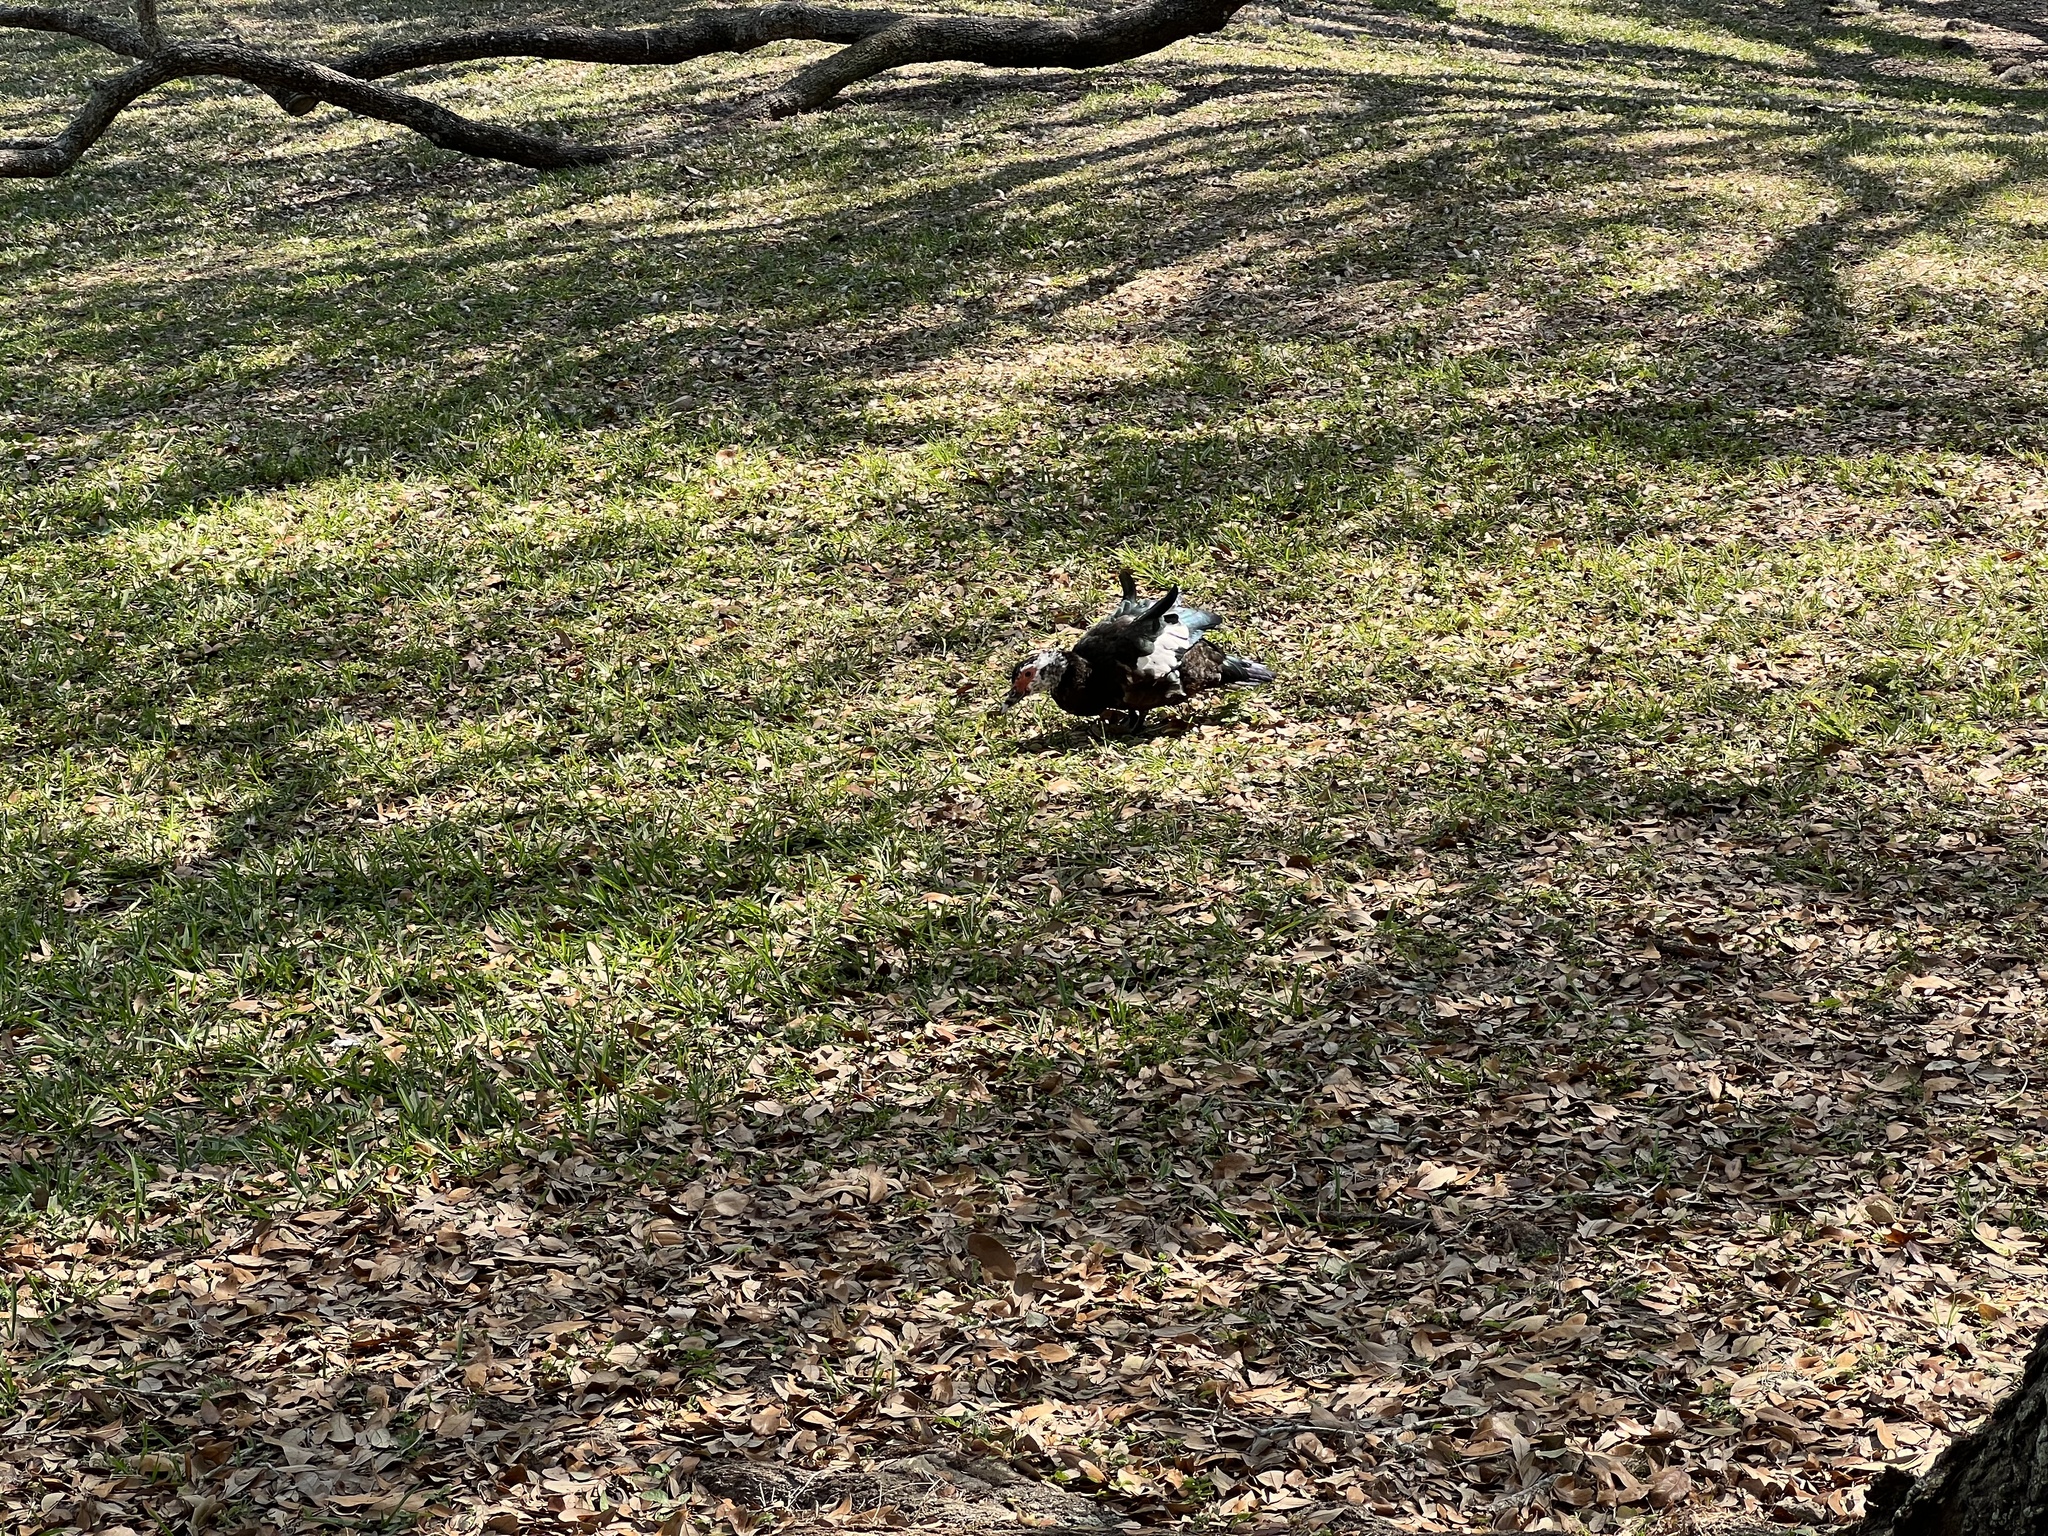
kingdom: Animalia
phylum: Chordata
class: Aves
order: Anseriformes
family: Anatidae
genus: Cairina
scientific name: Cairina moschata
